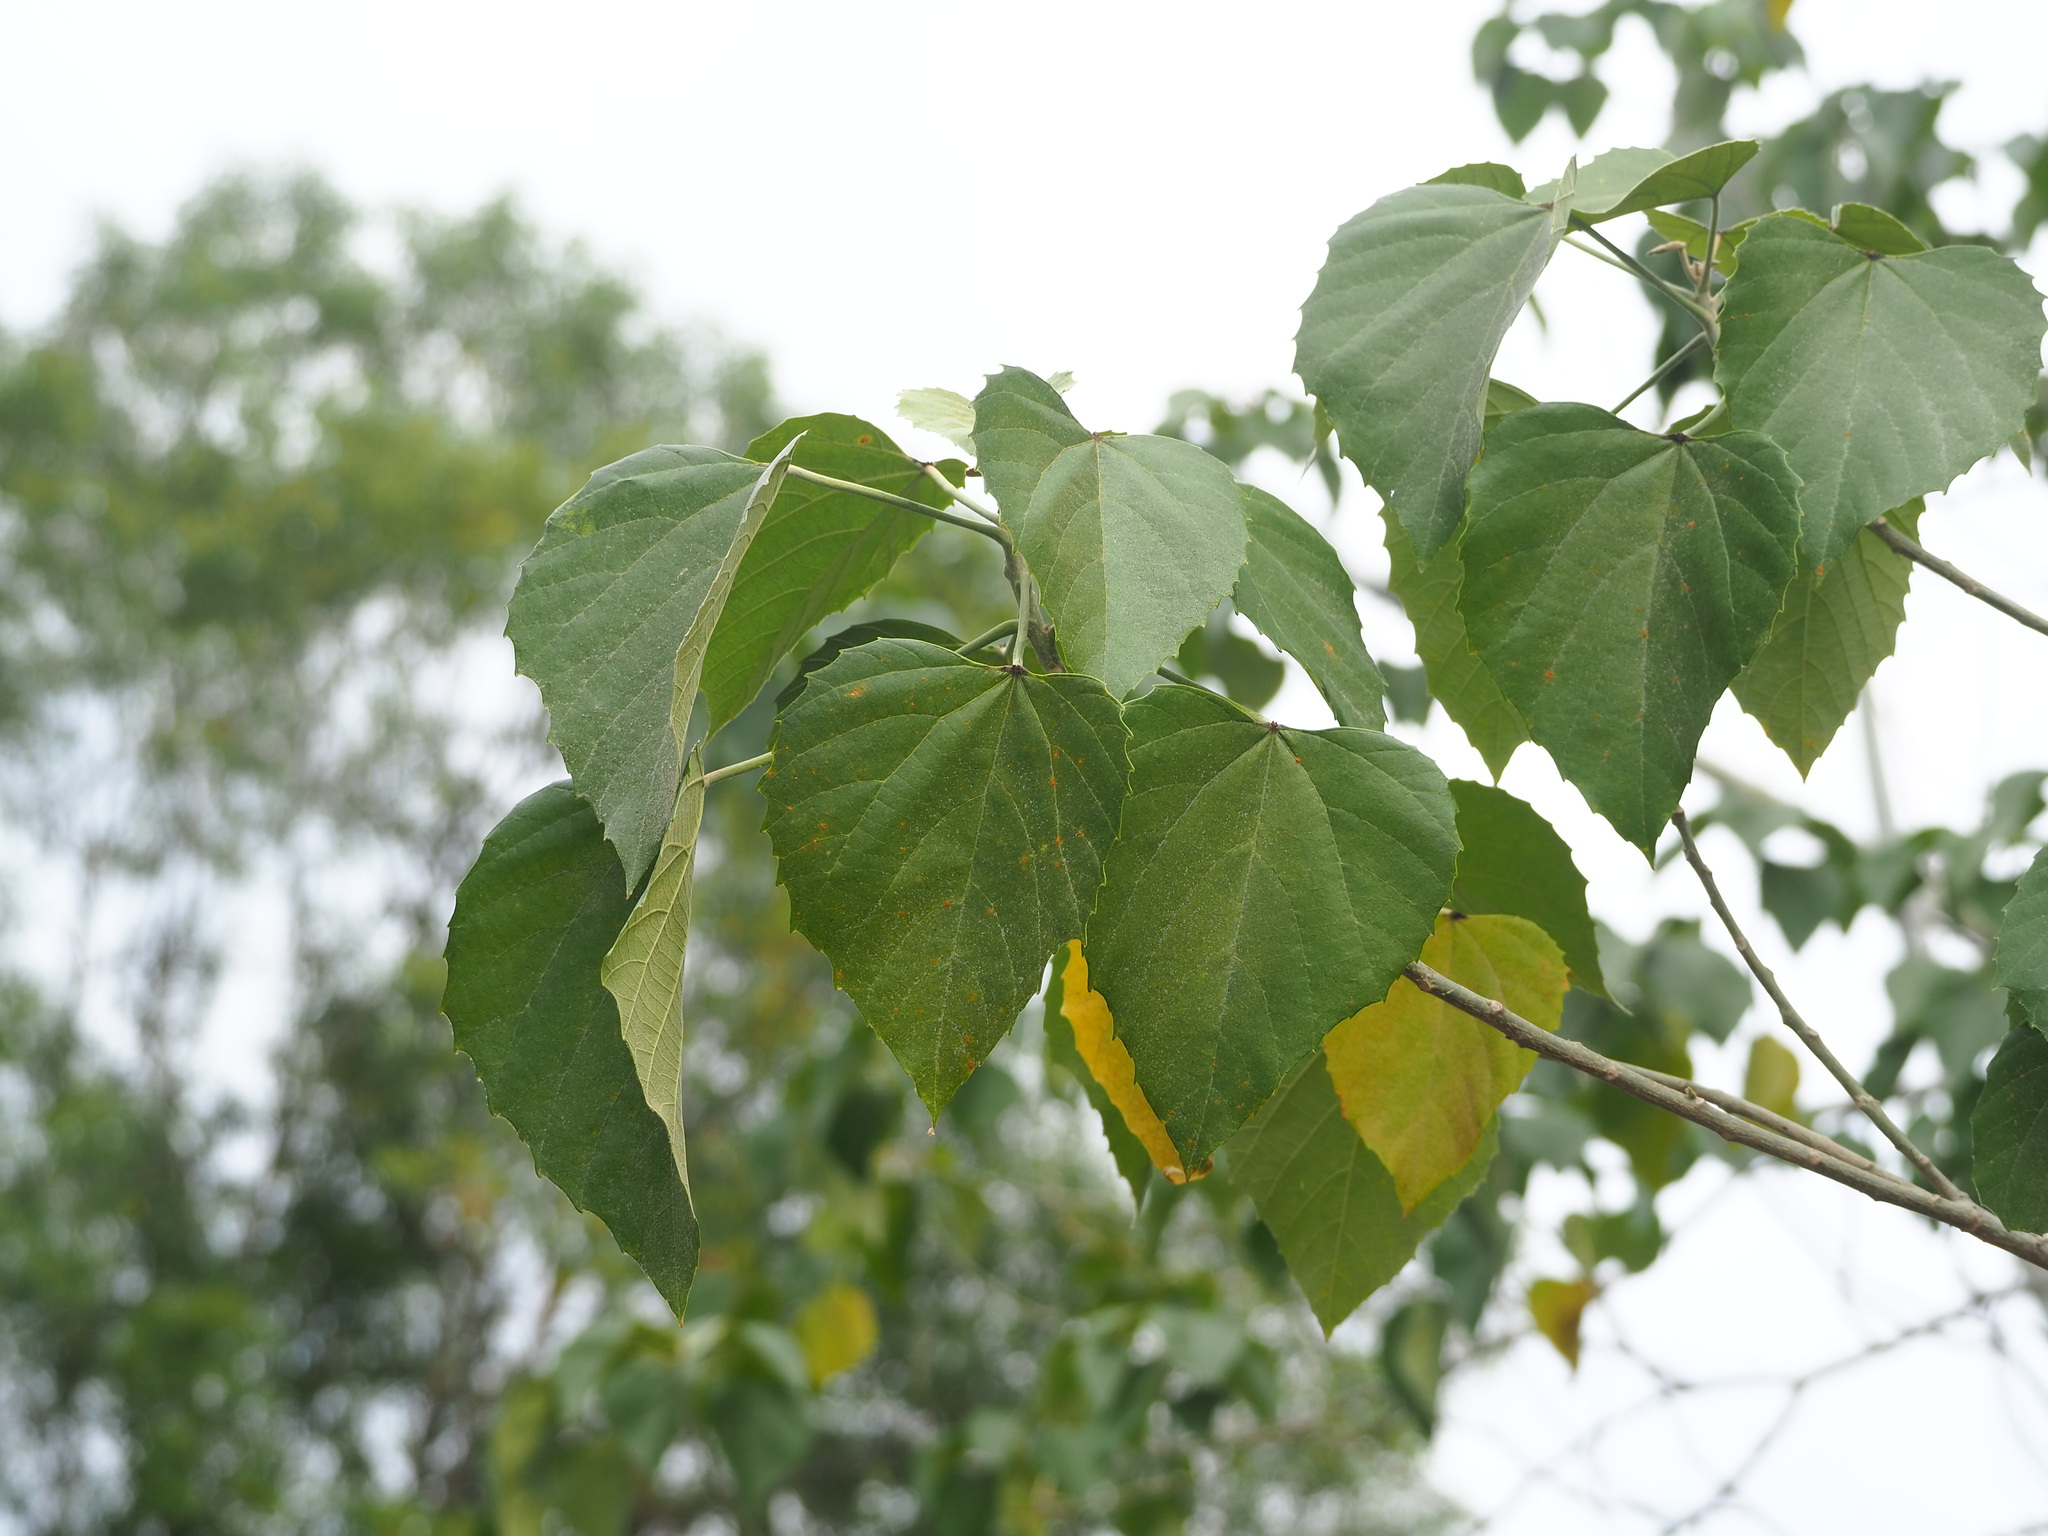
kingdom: Plantae
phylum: Tracheophyta
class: Magnoliopsida
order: Malpighiales
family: Euphorbiaceae
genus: Melanolepis
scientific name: Melanolepis multiglandulosa
